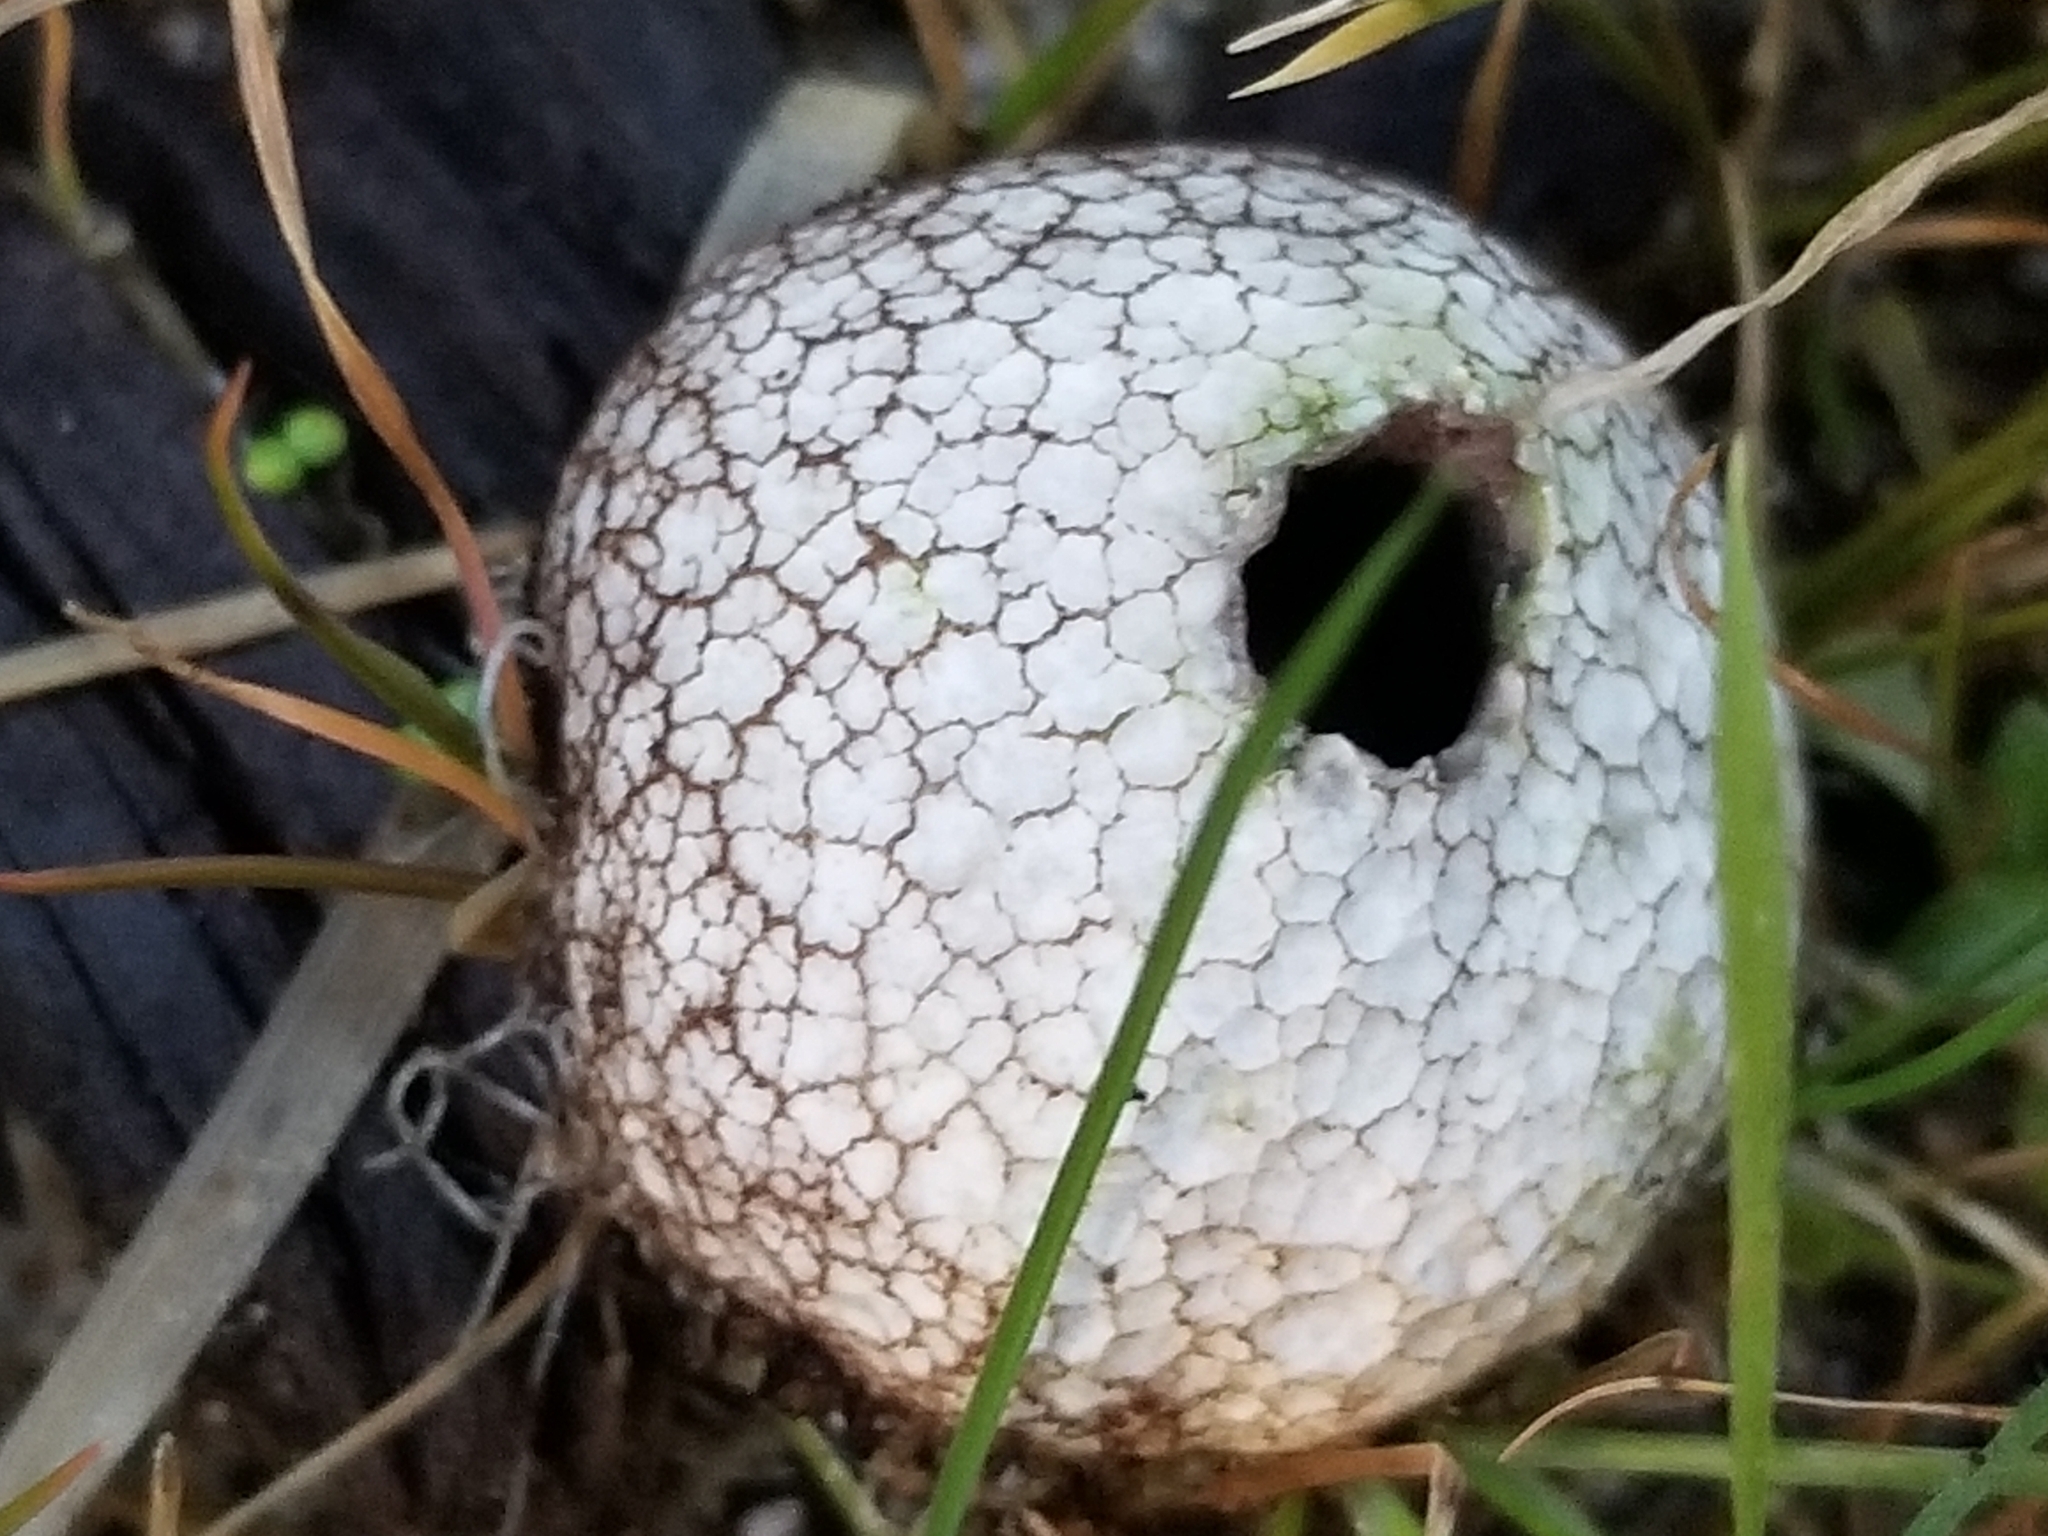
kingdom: Fungi
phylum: Basidiomycota
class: Agaricomycetes
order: Agaricales
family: Lycoperdaceae
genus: Lycoperdon
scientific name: Lycoperdon compactum
